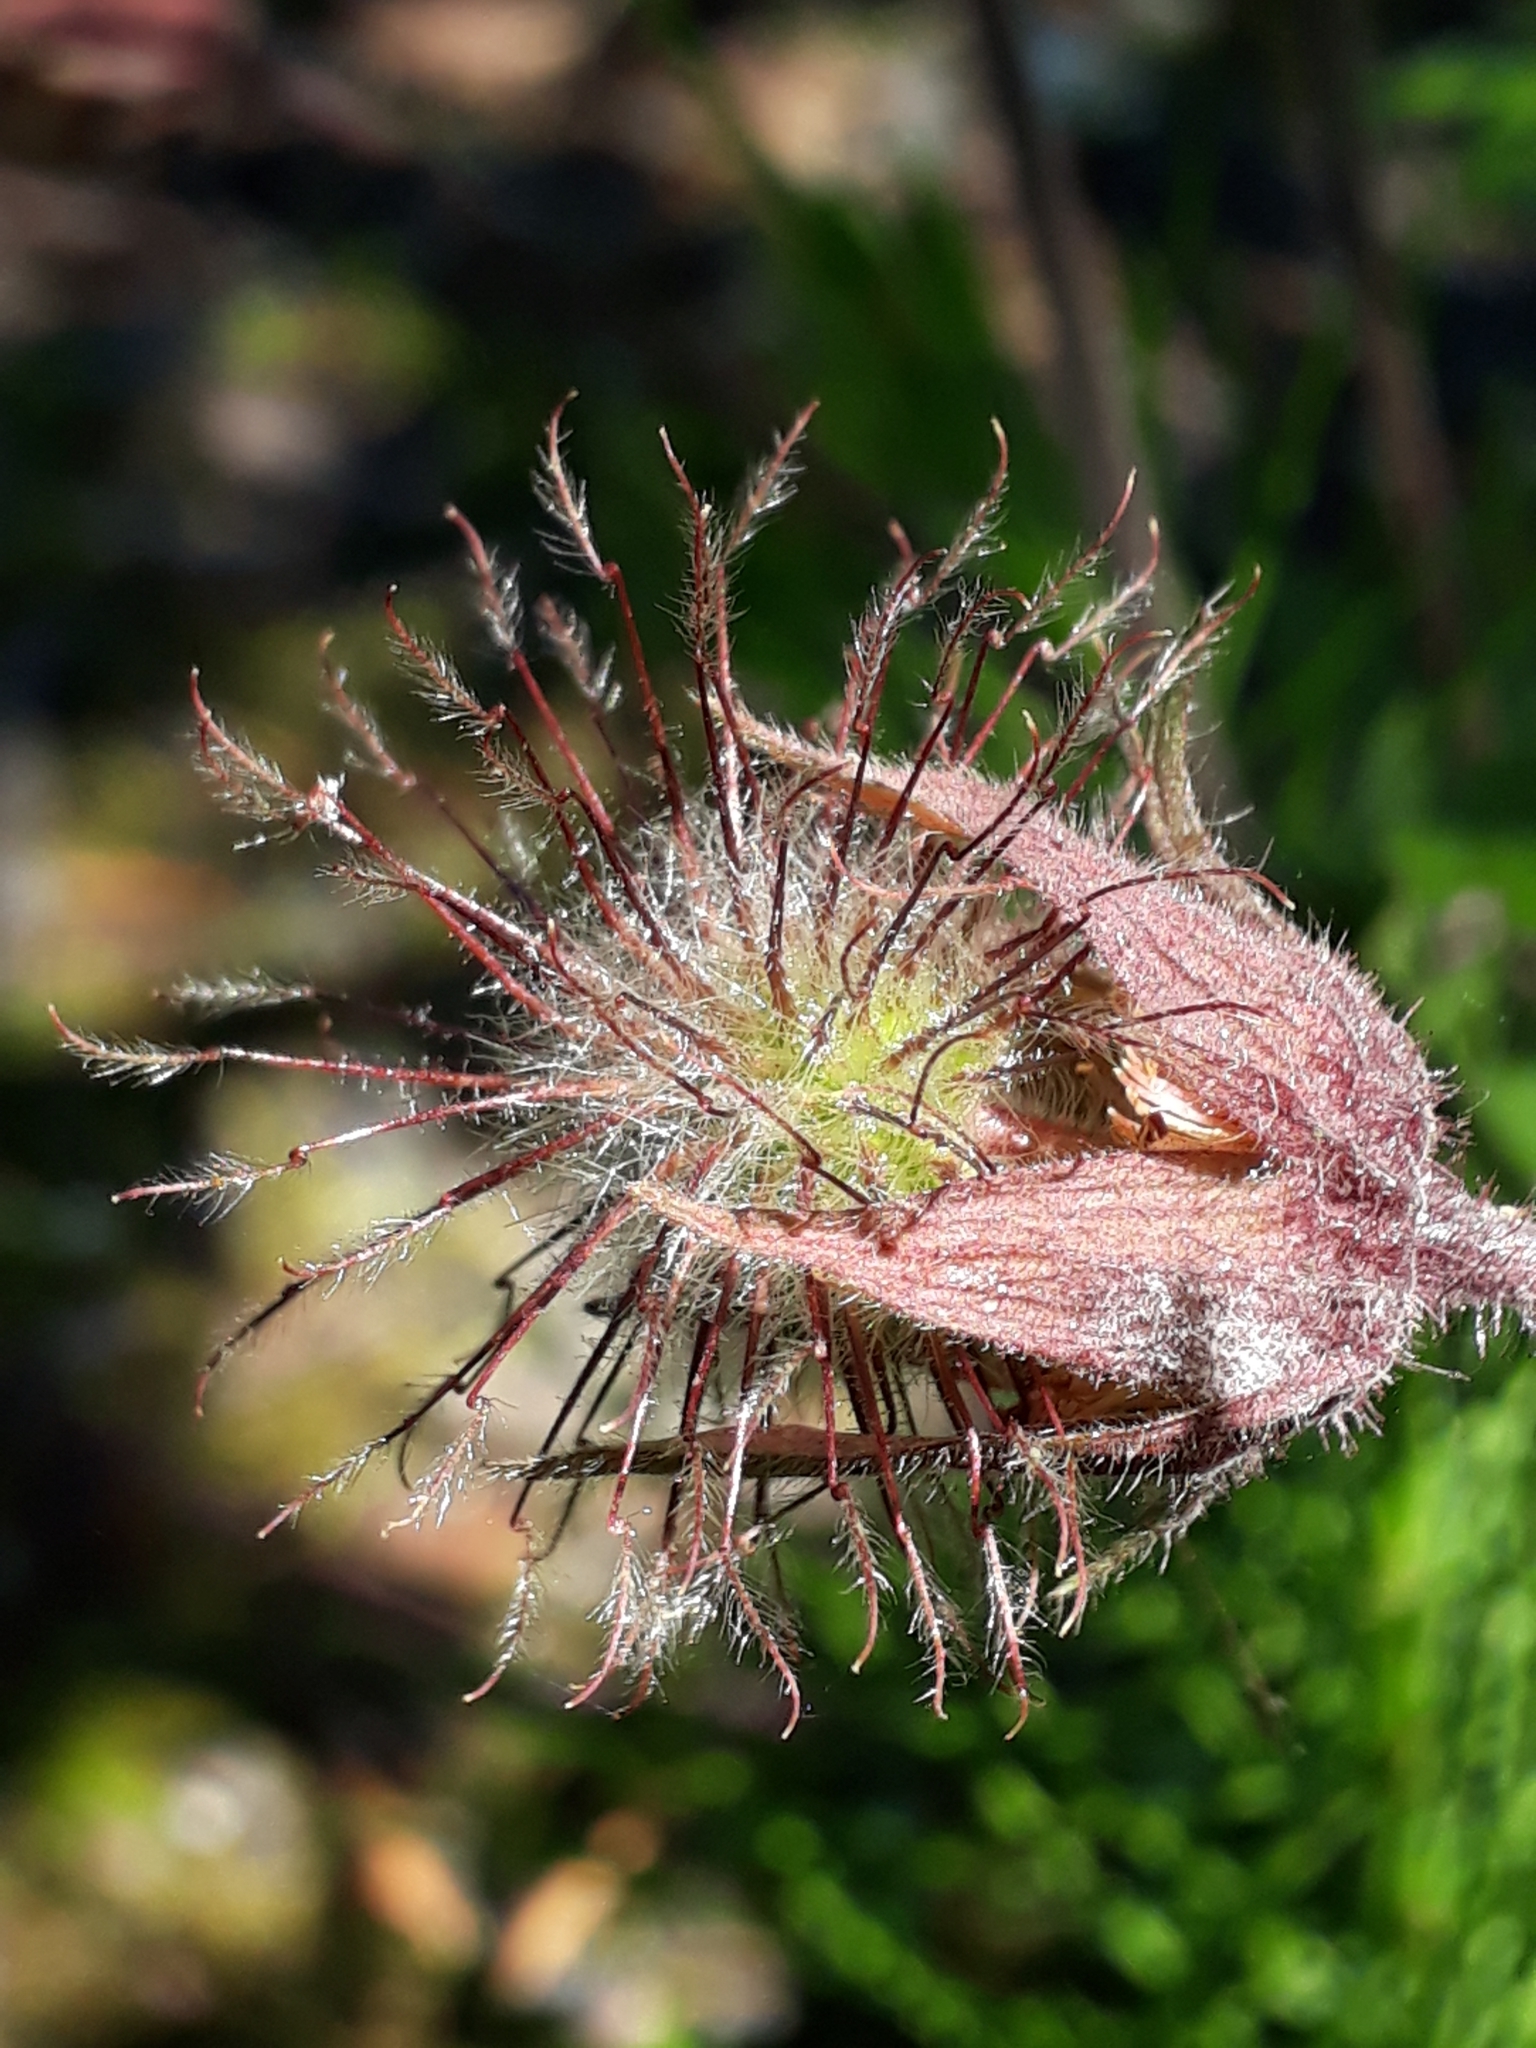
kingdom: Plantae
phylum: Tracheophyta
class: Magnoliopsida
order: Rosales
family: Rosaceae
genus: Geum
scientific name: Geum rivale
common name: Water avens
